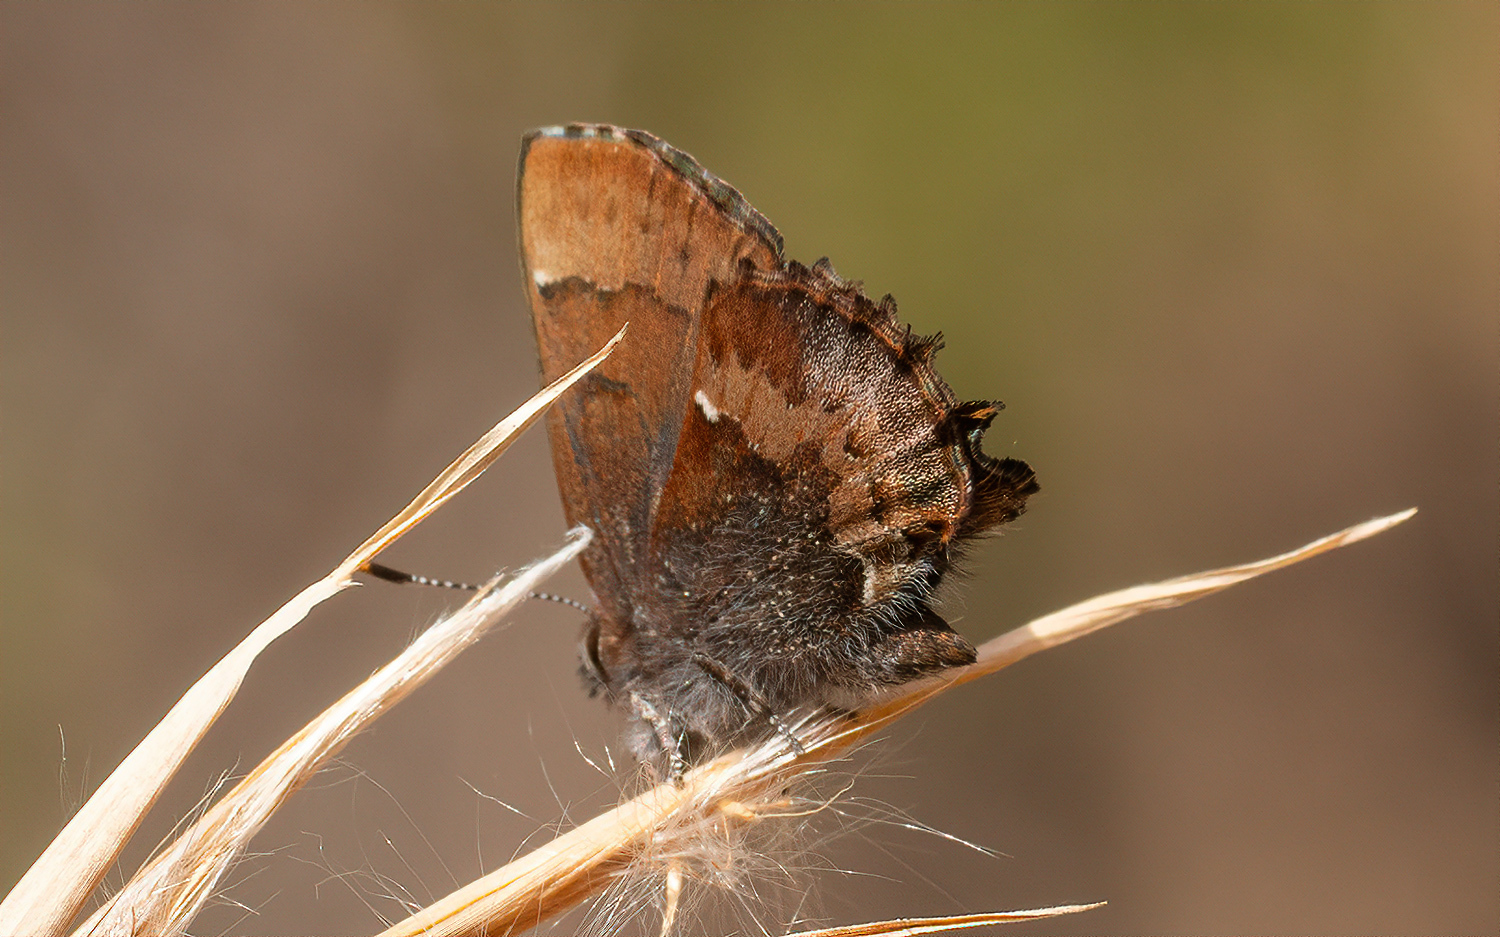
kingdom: Animalia
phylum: Arthropoda
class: Insecta
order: Lepidoptera
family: Lycaenidae
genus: Incisalia
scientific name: Incisalia henrici
